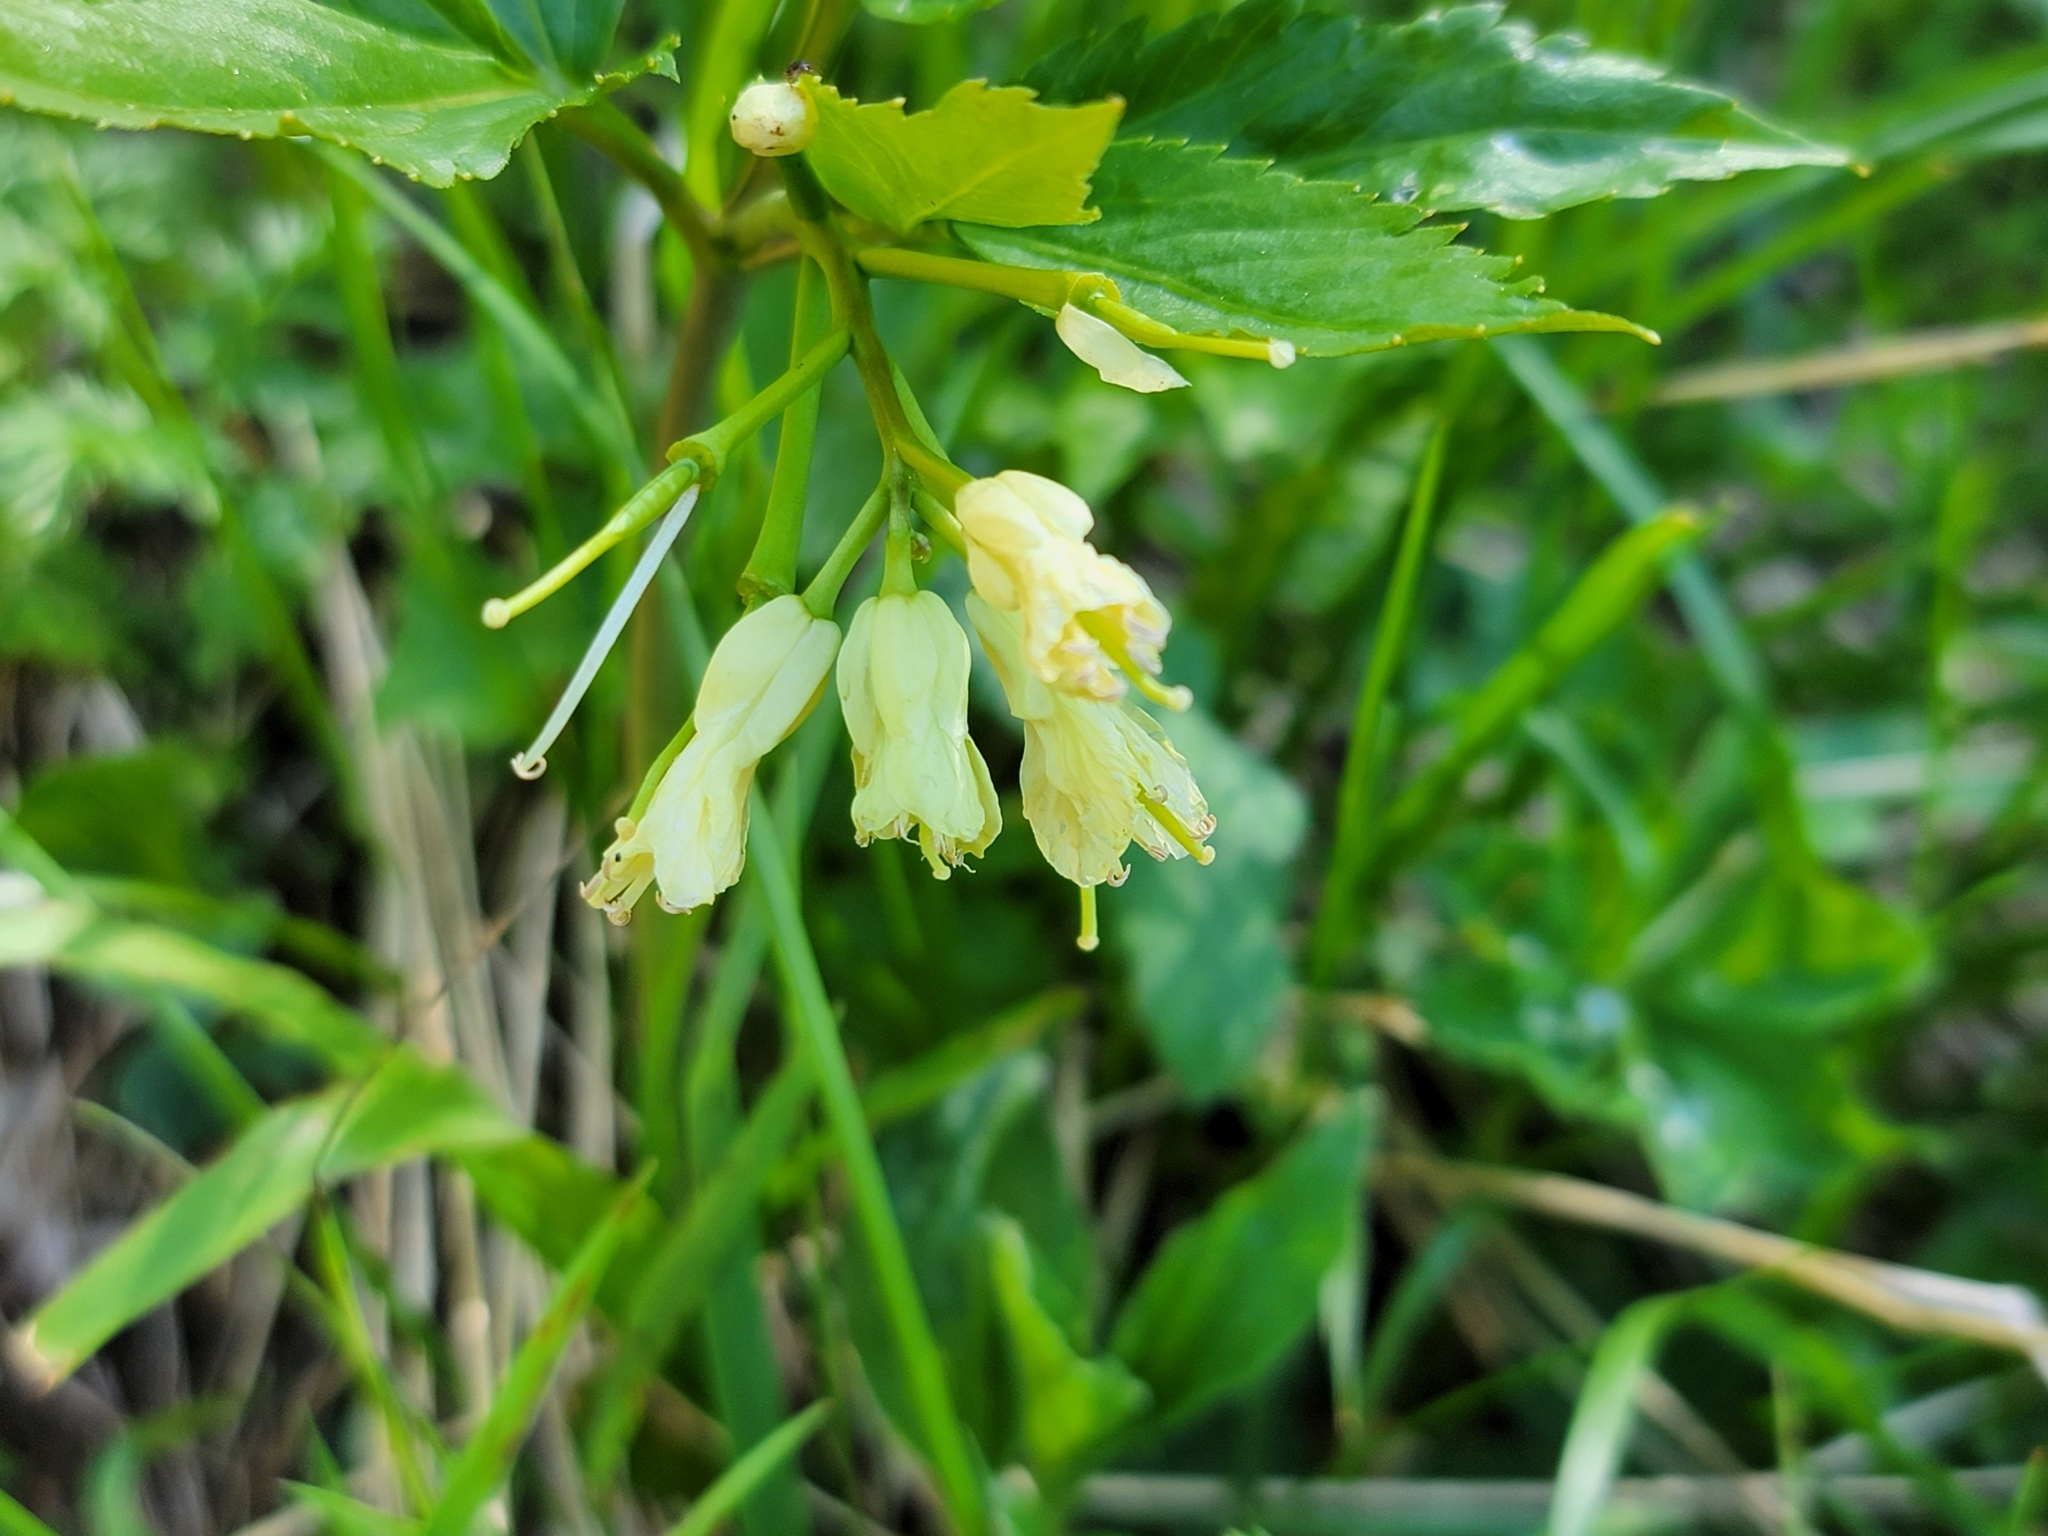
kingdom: Plantae
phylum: Tracheophyta
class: Magnoliopsida
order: Brassicales
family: Brassicaceae
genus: Cardamine
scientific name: Cardamine enneaphyllos
